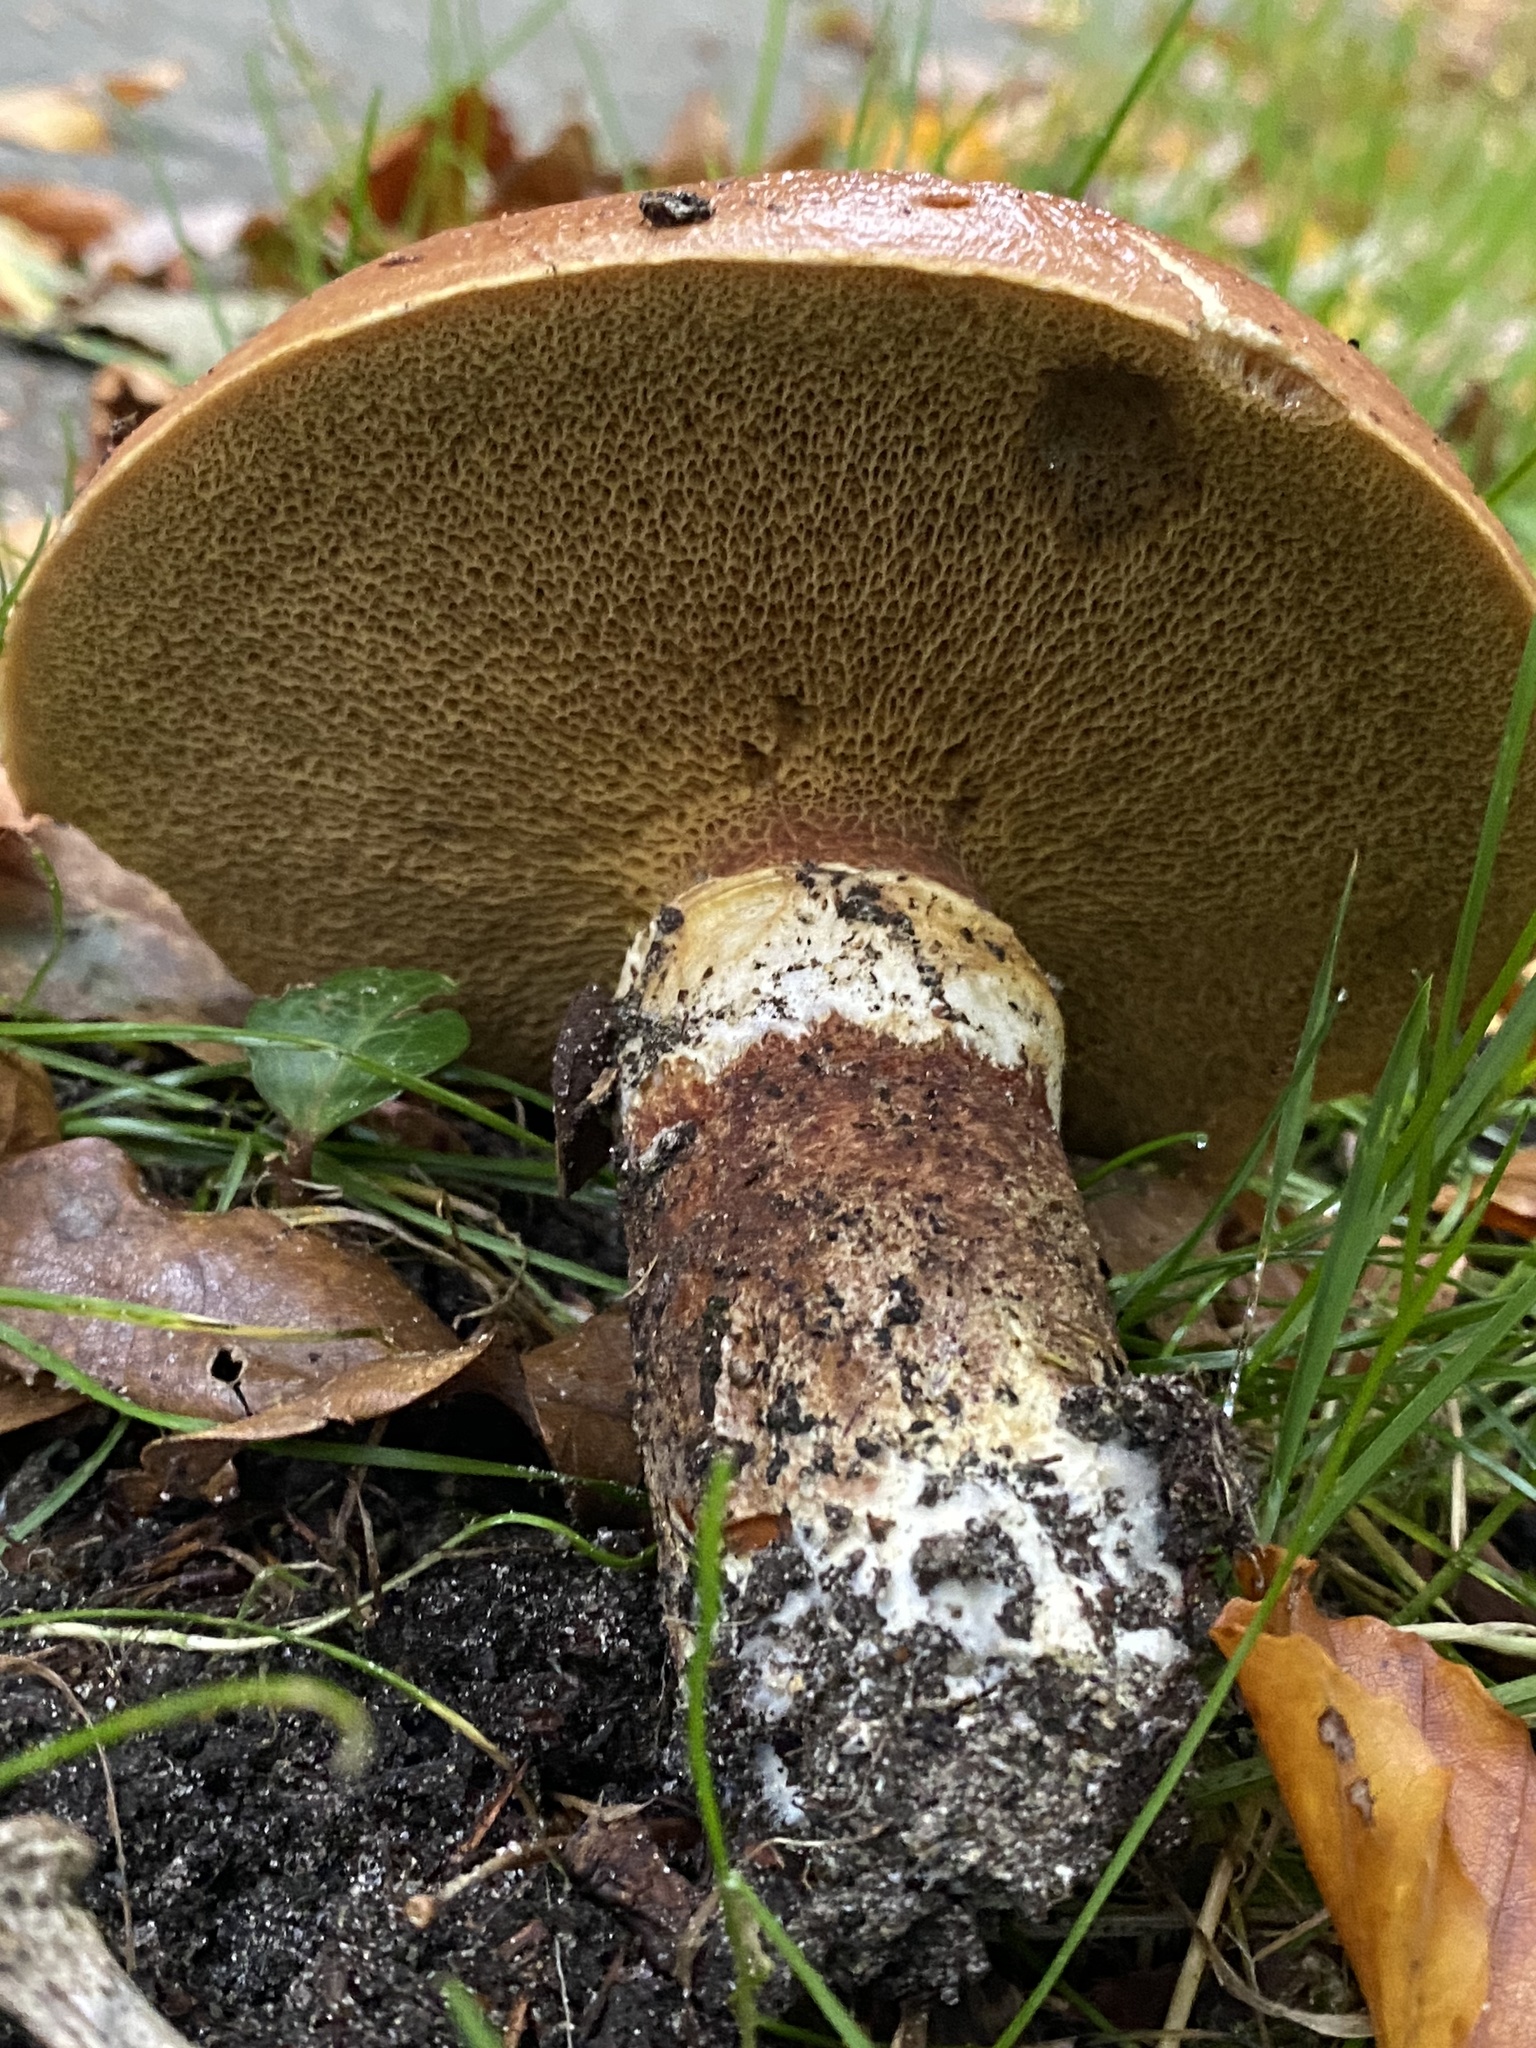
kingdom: Fungi
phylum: Basidiomycota
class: Agaricomycetes
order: Boletales
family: Suillaceae
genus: Suillus
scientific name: Suillus grevillei
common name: Larch bolete
